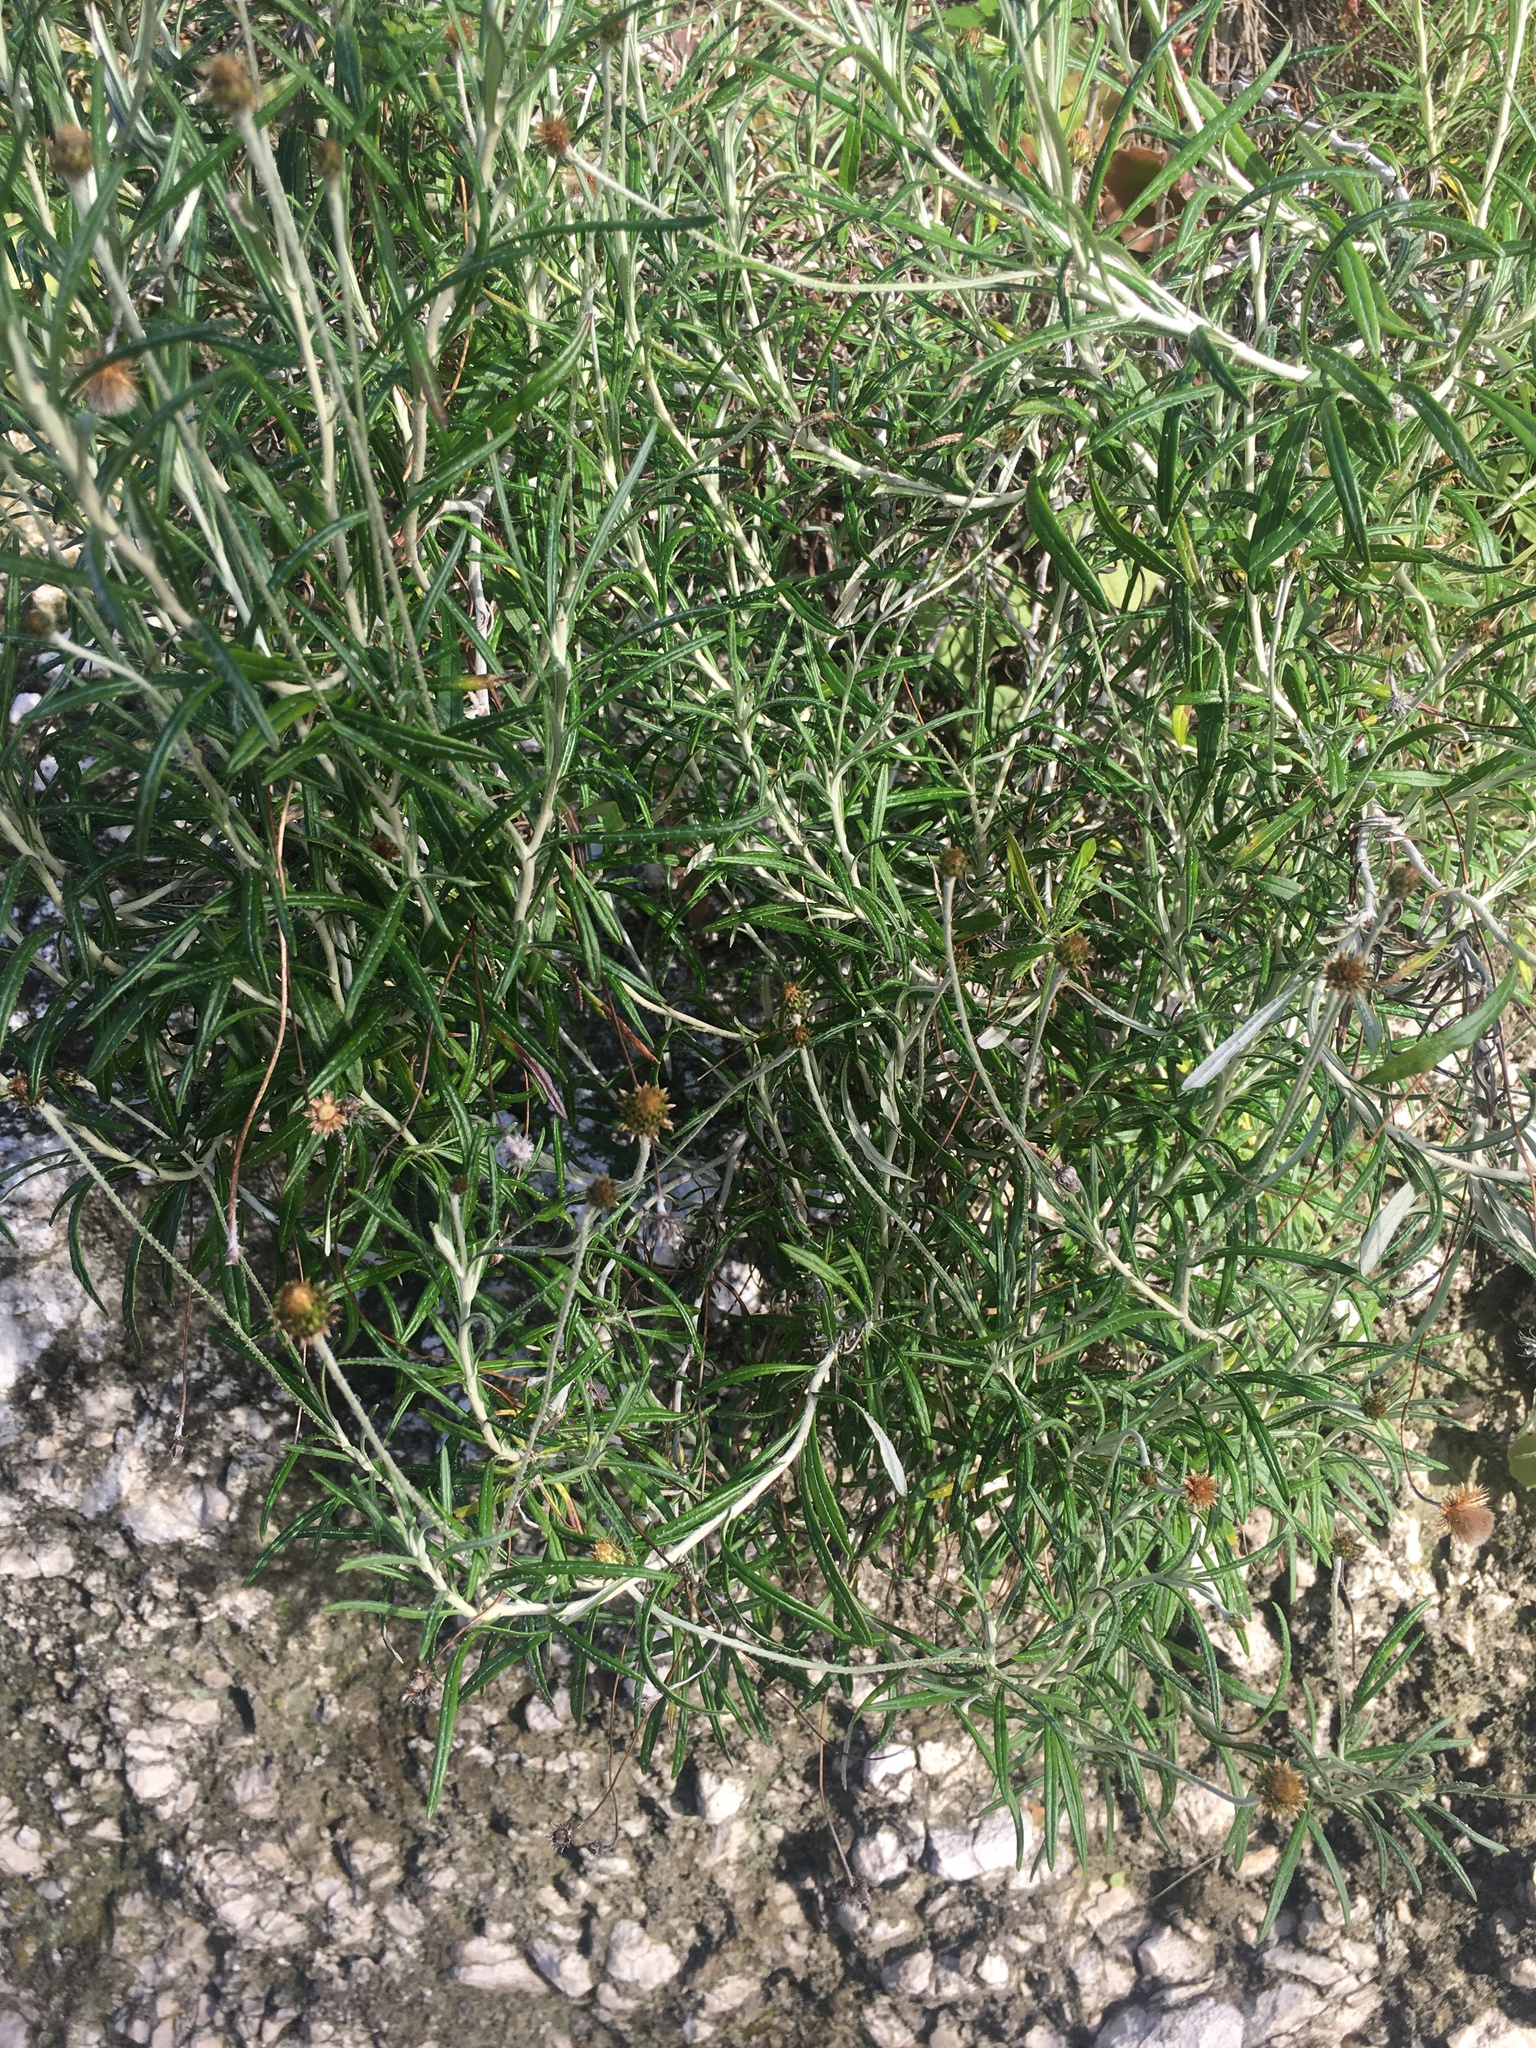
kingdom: Plantae
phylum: Tracheophyta
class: Magnoliopsida
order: Asterales
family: Asteraceae
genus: Phagnalon
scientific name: Phagnalon saxatile
